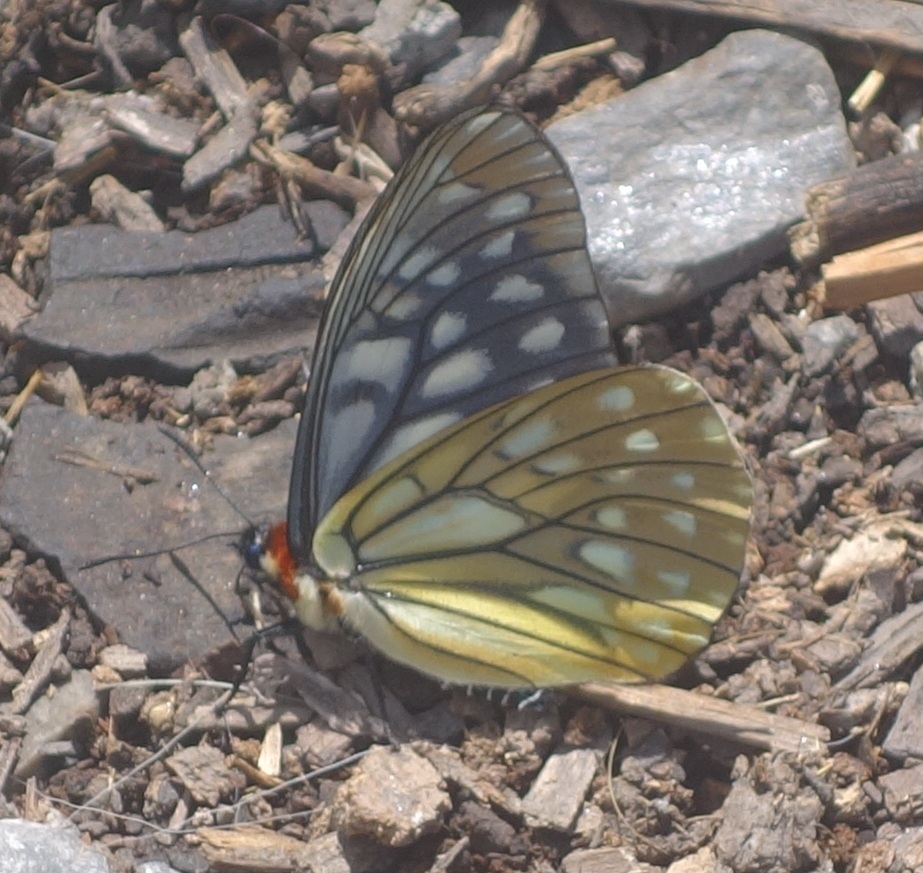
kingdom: Animalia
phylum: Arthropoda
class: Insecta
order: Lepidoptera
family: Nymphalidae
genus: Calinaga
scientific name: Calinaga lhatso
